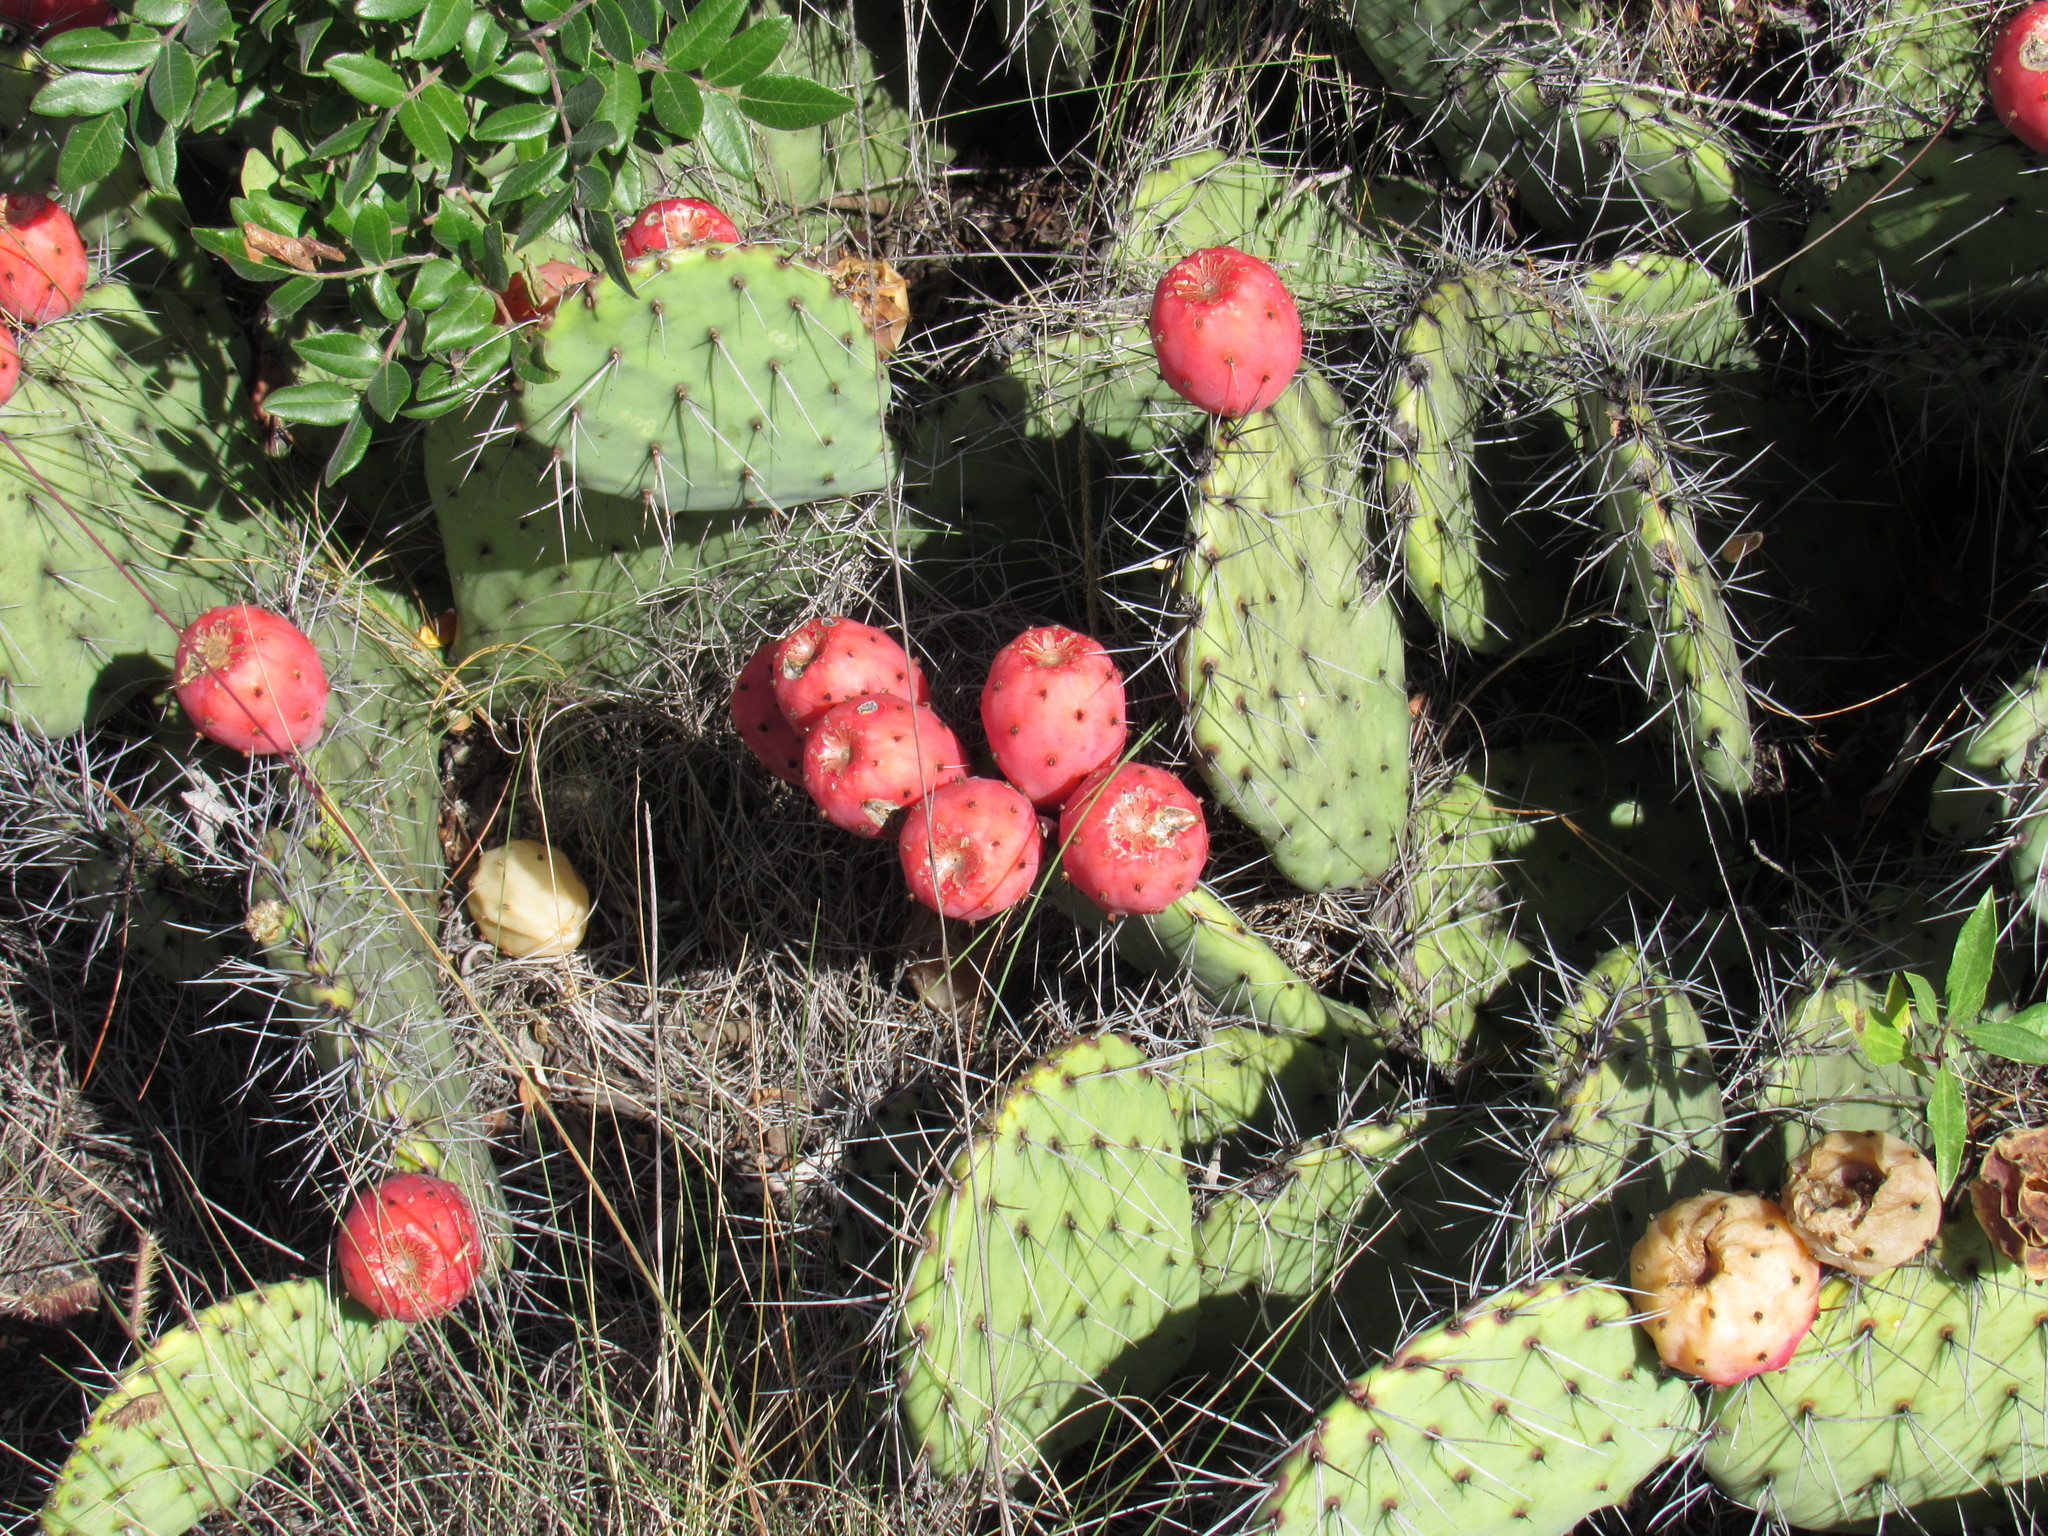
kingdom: Plantae
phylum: Tracheophyta
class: Magnoliopsida
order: Caryophyllales
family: Cactaceae
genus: Opuntia
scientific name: Opuntia stenopetala
